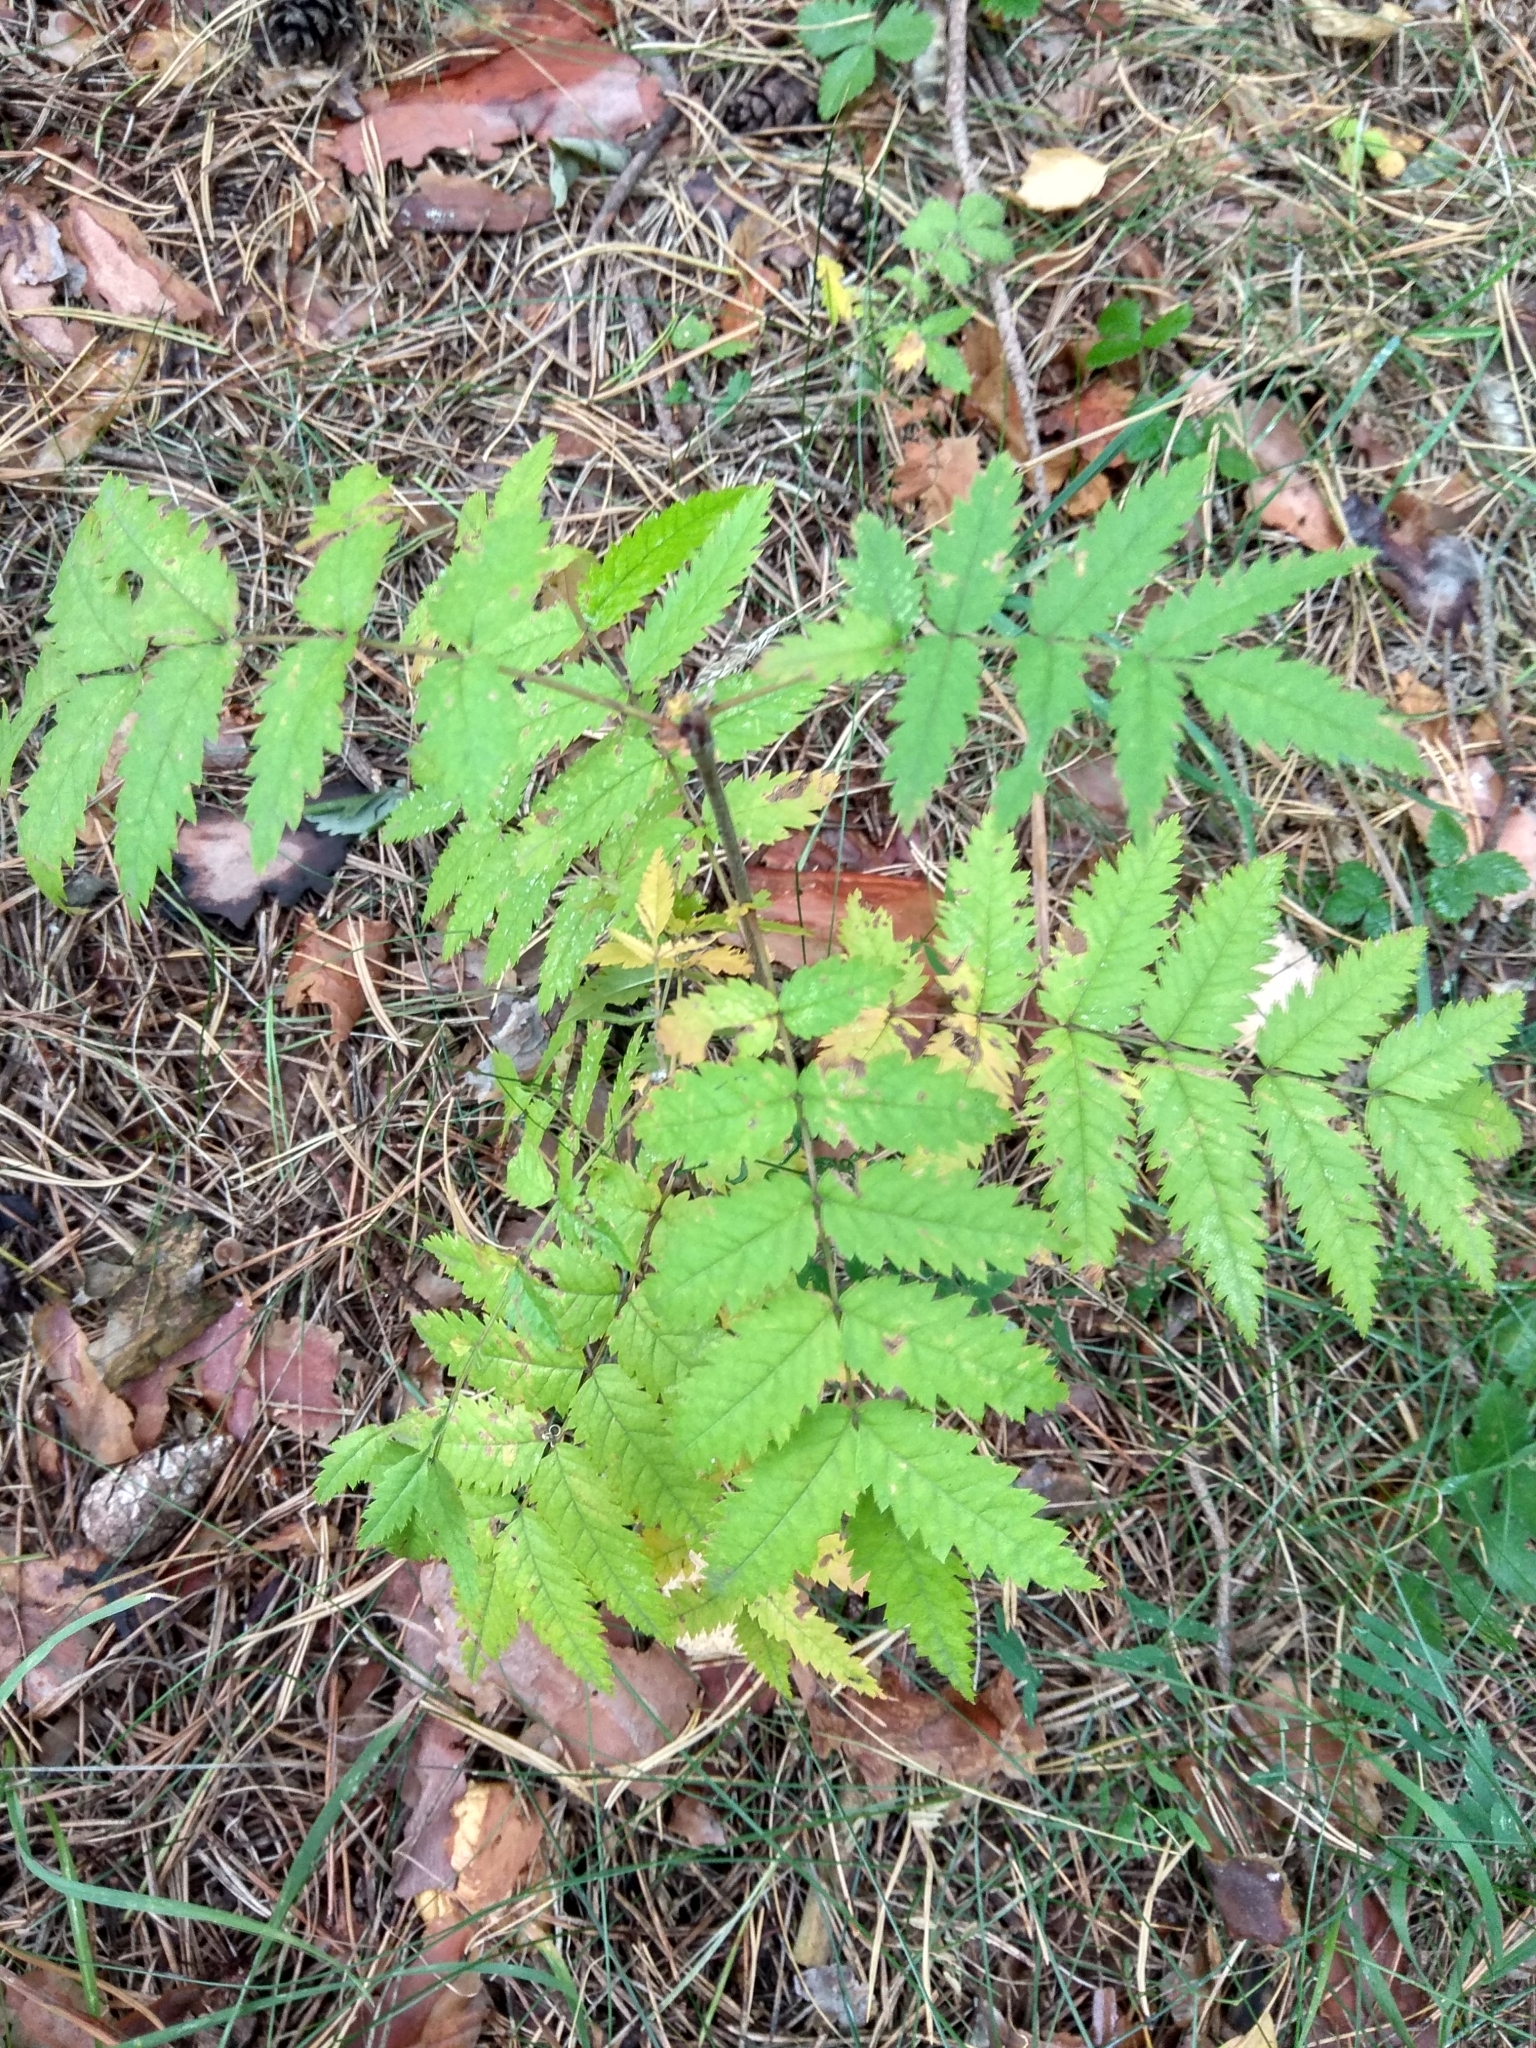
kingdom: Plantae
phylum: Tracheophyta
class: Magnoliopsida
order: Rosales
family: Rosaceae
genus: Sorbus
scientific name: Sorbus aucuparia
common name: Rowan
